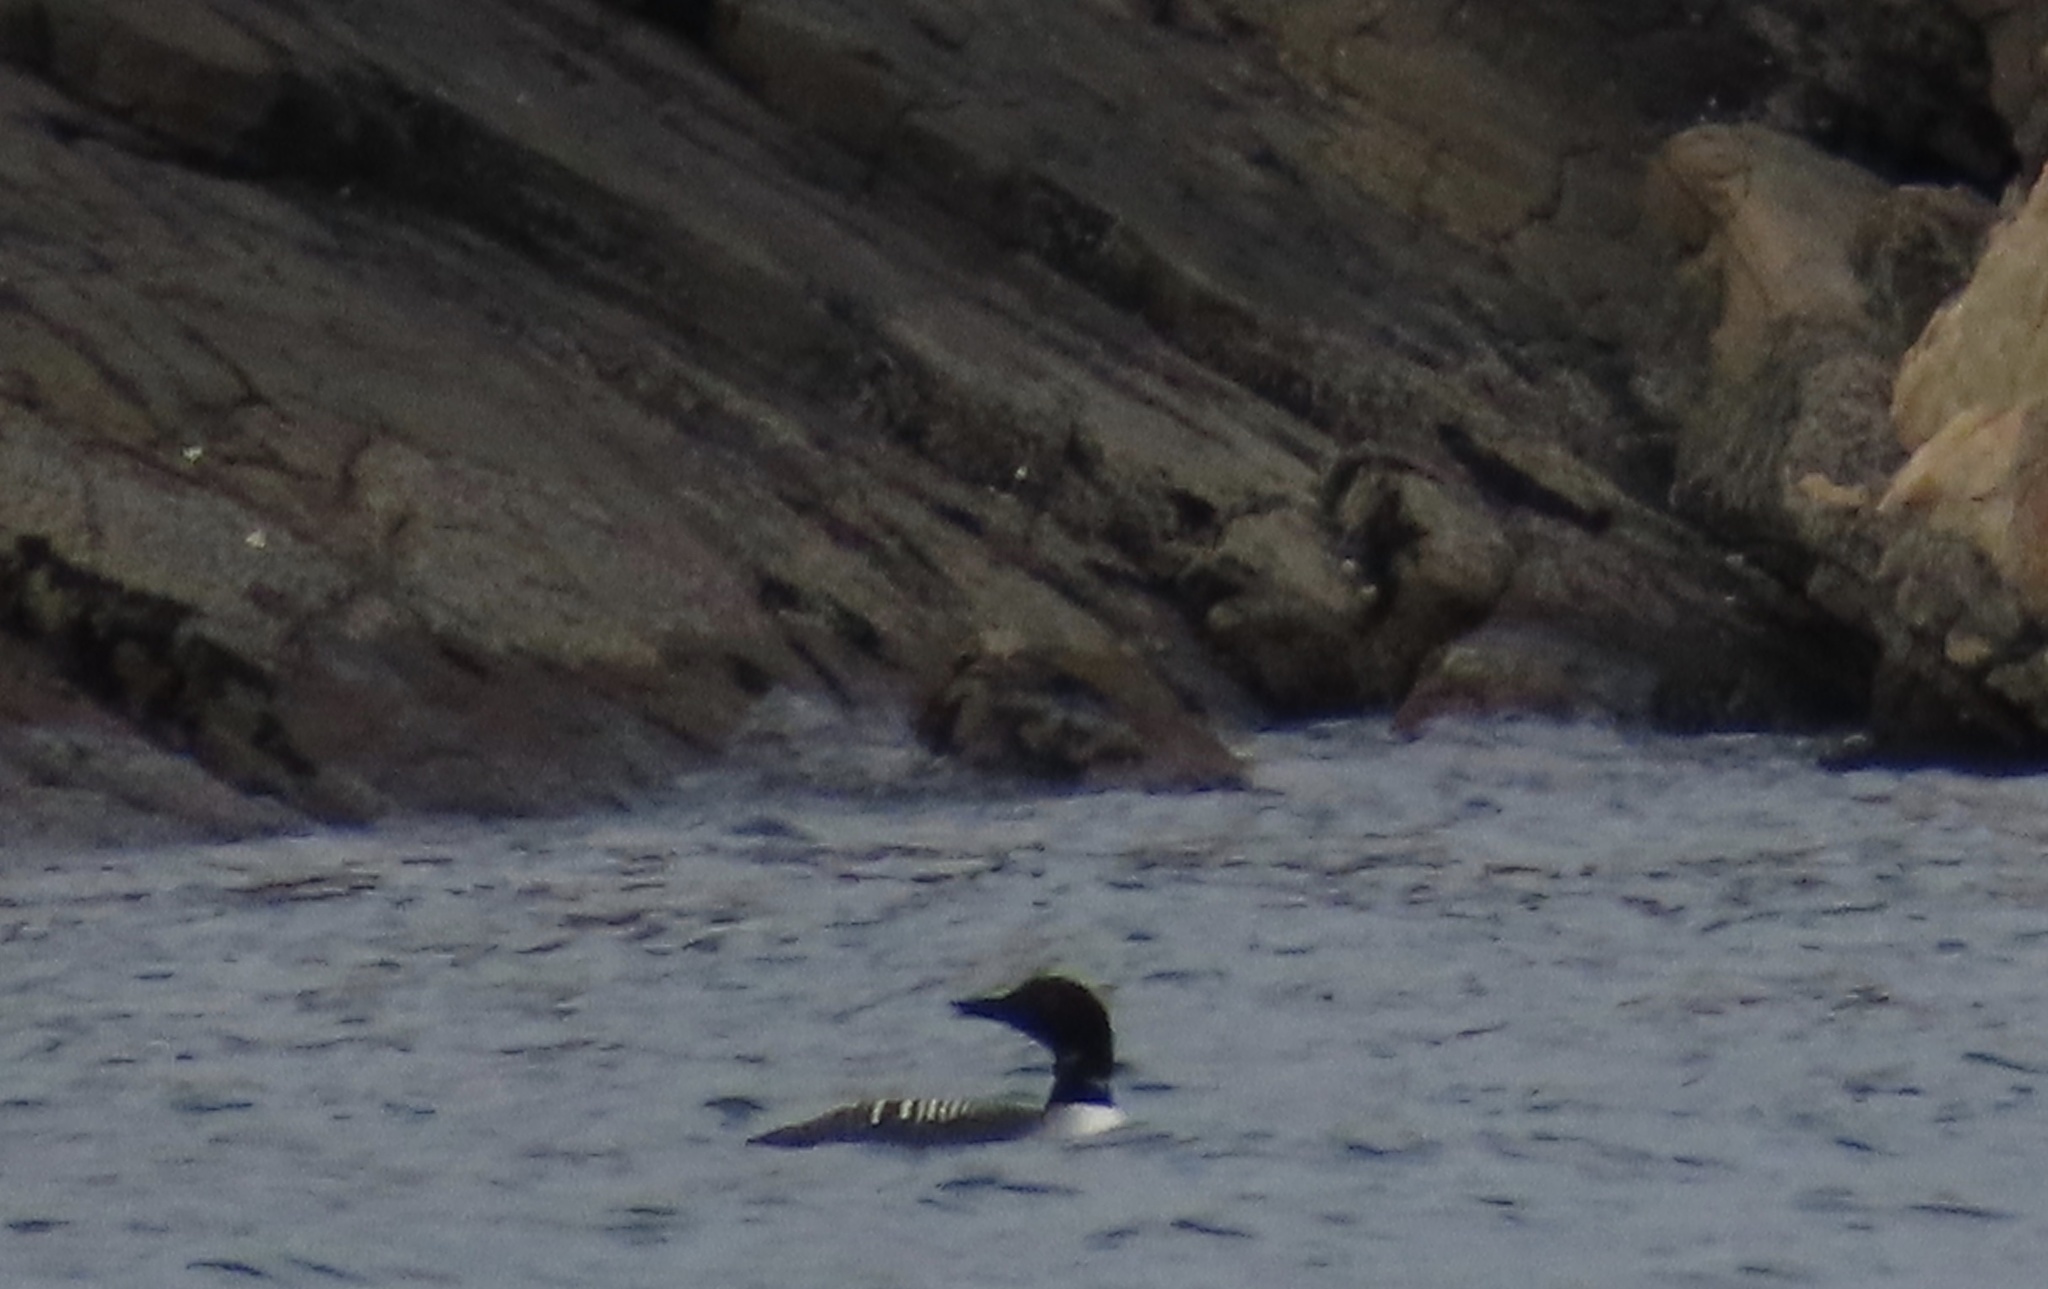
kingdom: Animalia
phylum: Chordata
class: Aves
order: Gaviiformes
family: Gaviidae
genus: Gavia
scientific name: Gavia immer
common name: Common loon
